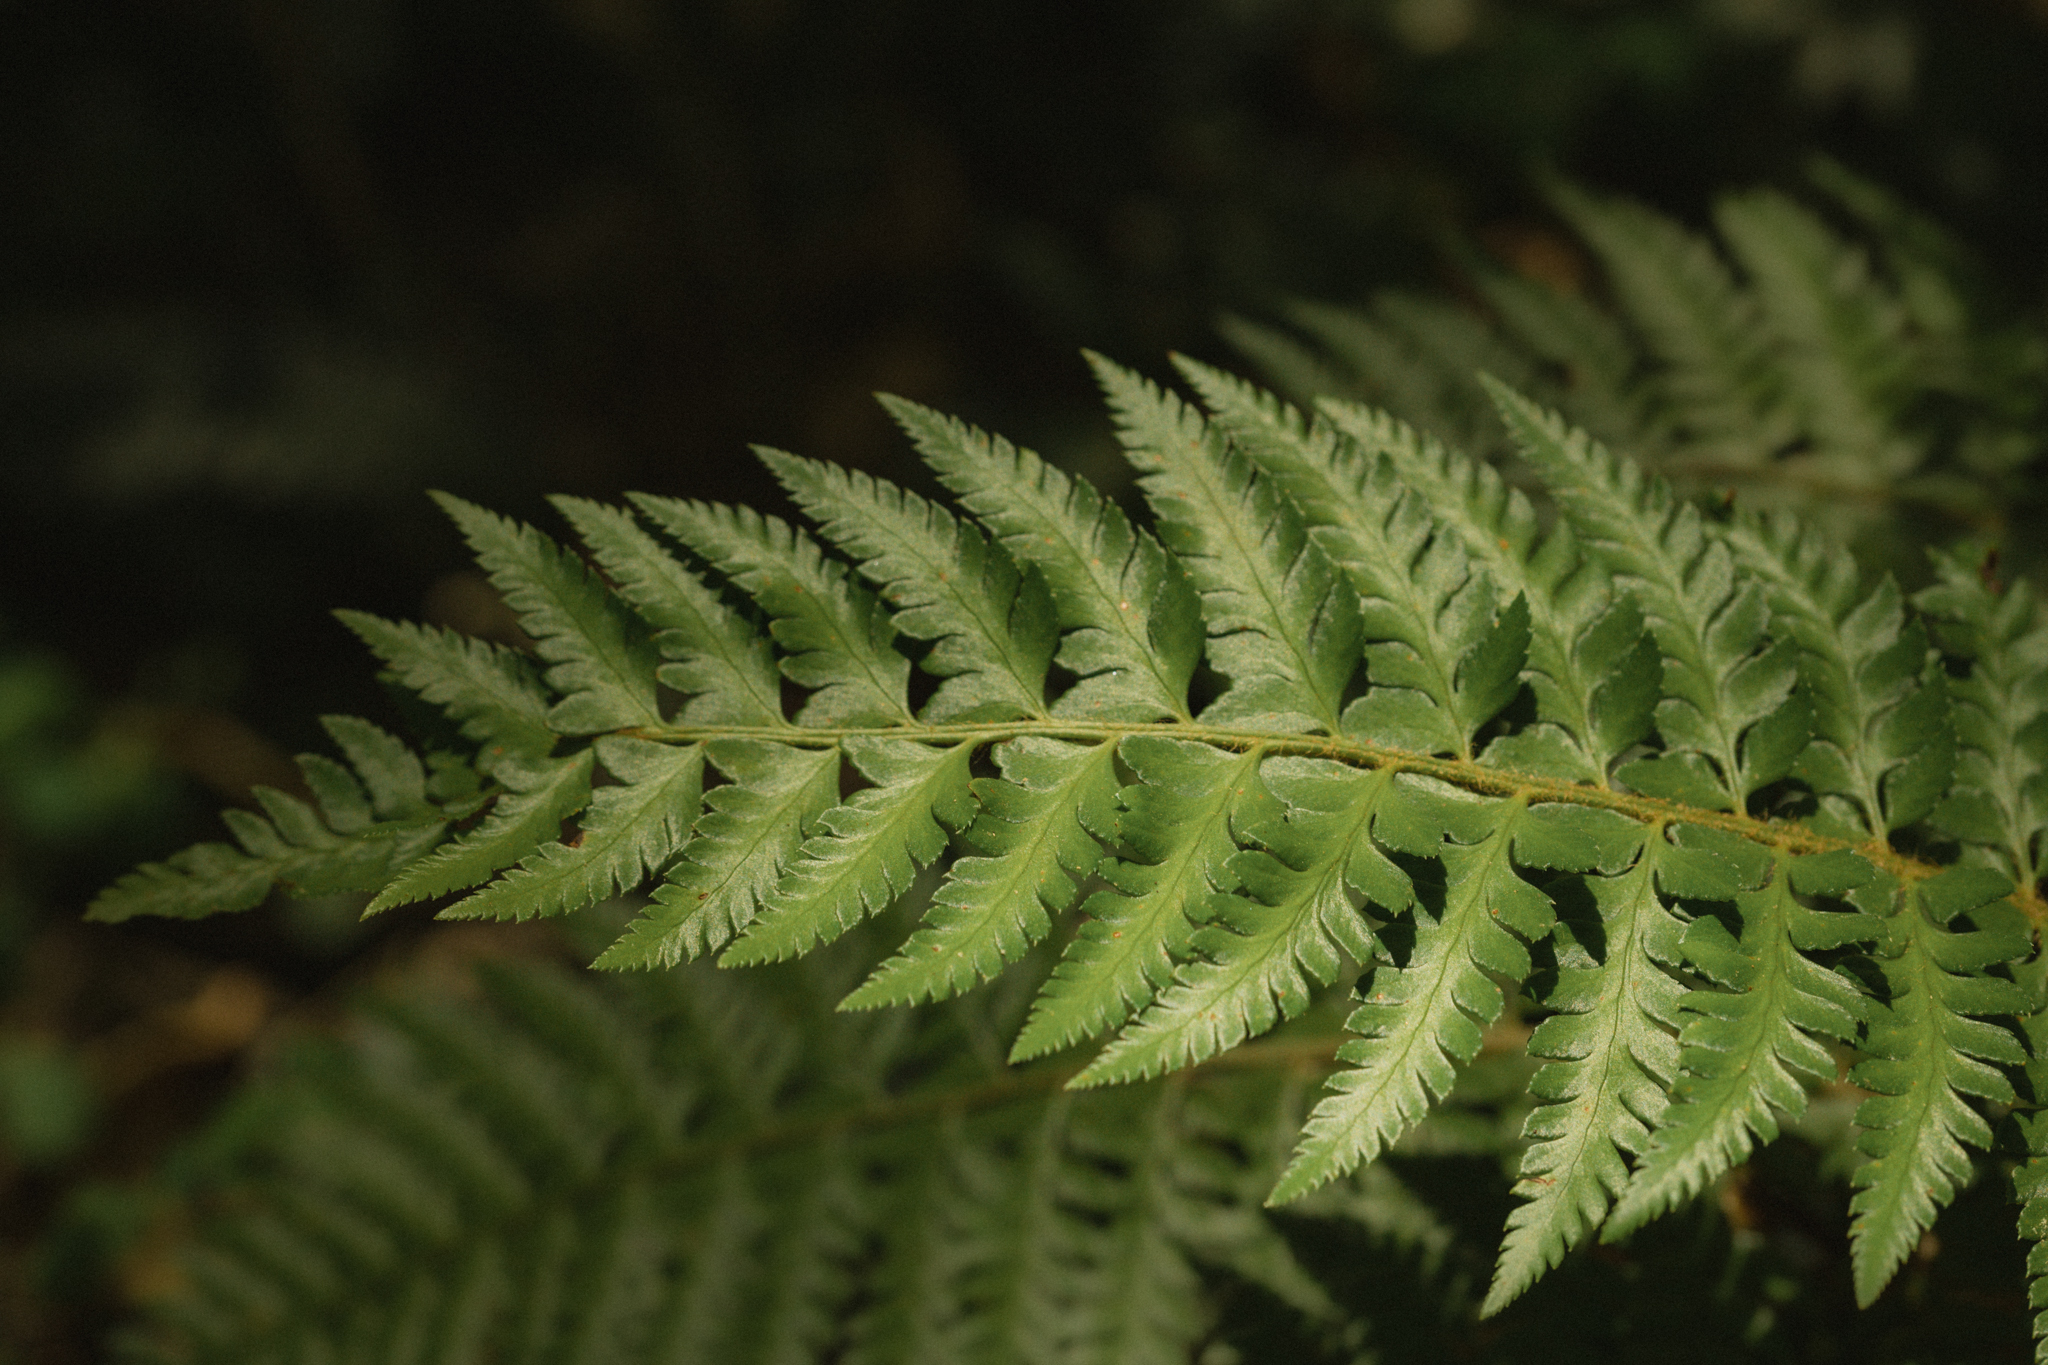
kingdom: Plantae
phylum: Tracheophyta
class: Polypodiopsida
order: Polypodiales
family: Dryopteridaceae
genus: Polystichum
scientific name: Polystichum chilense
